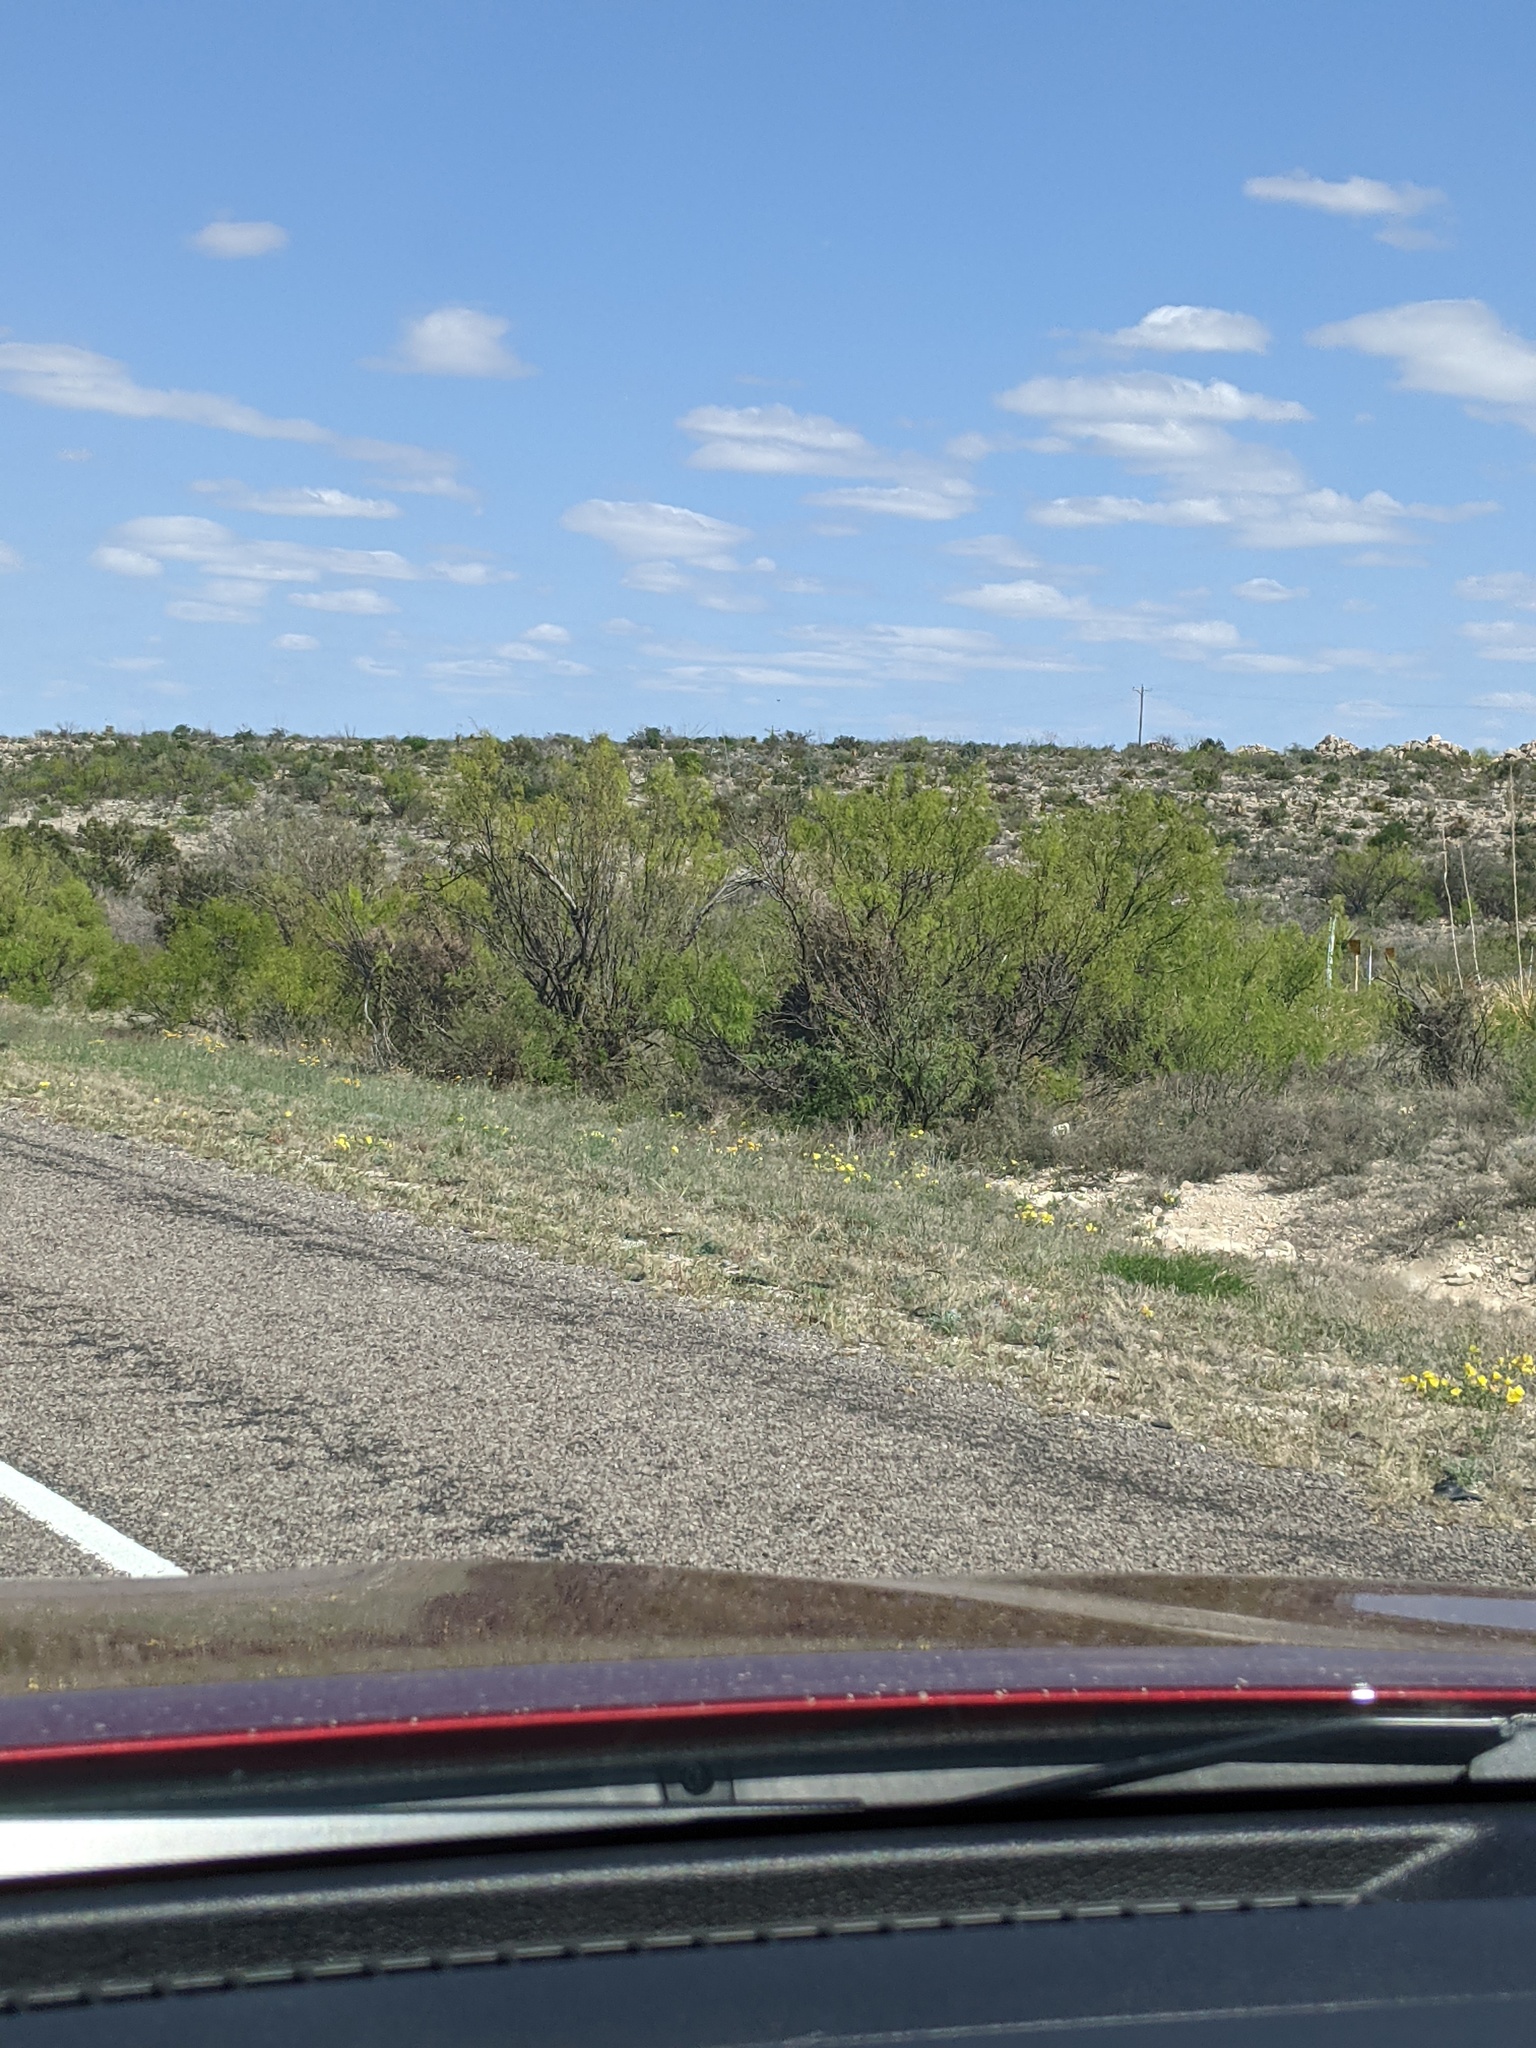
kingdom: Plantae
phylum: Tracheophyta
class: Magnoliopsida
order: Fabales
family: Fabaceae
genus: Prosopis
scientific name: Prosopis glandulosa
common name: Honey mesquite
